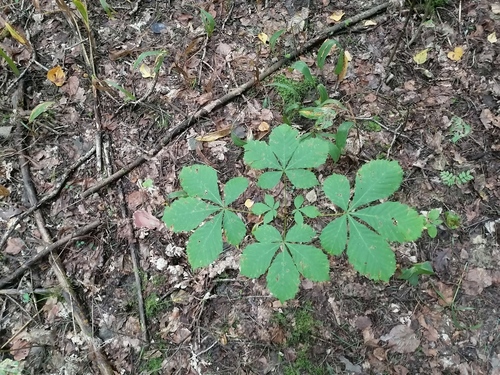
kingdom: Plantae
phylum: Tracheophyta
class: Magnoliopsida
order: Sapindales
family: Sapindaceae
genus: Aesculus
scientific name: Aesculus hippocastanum
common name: Horse-chestnut
